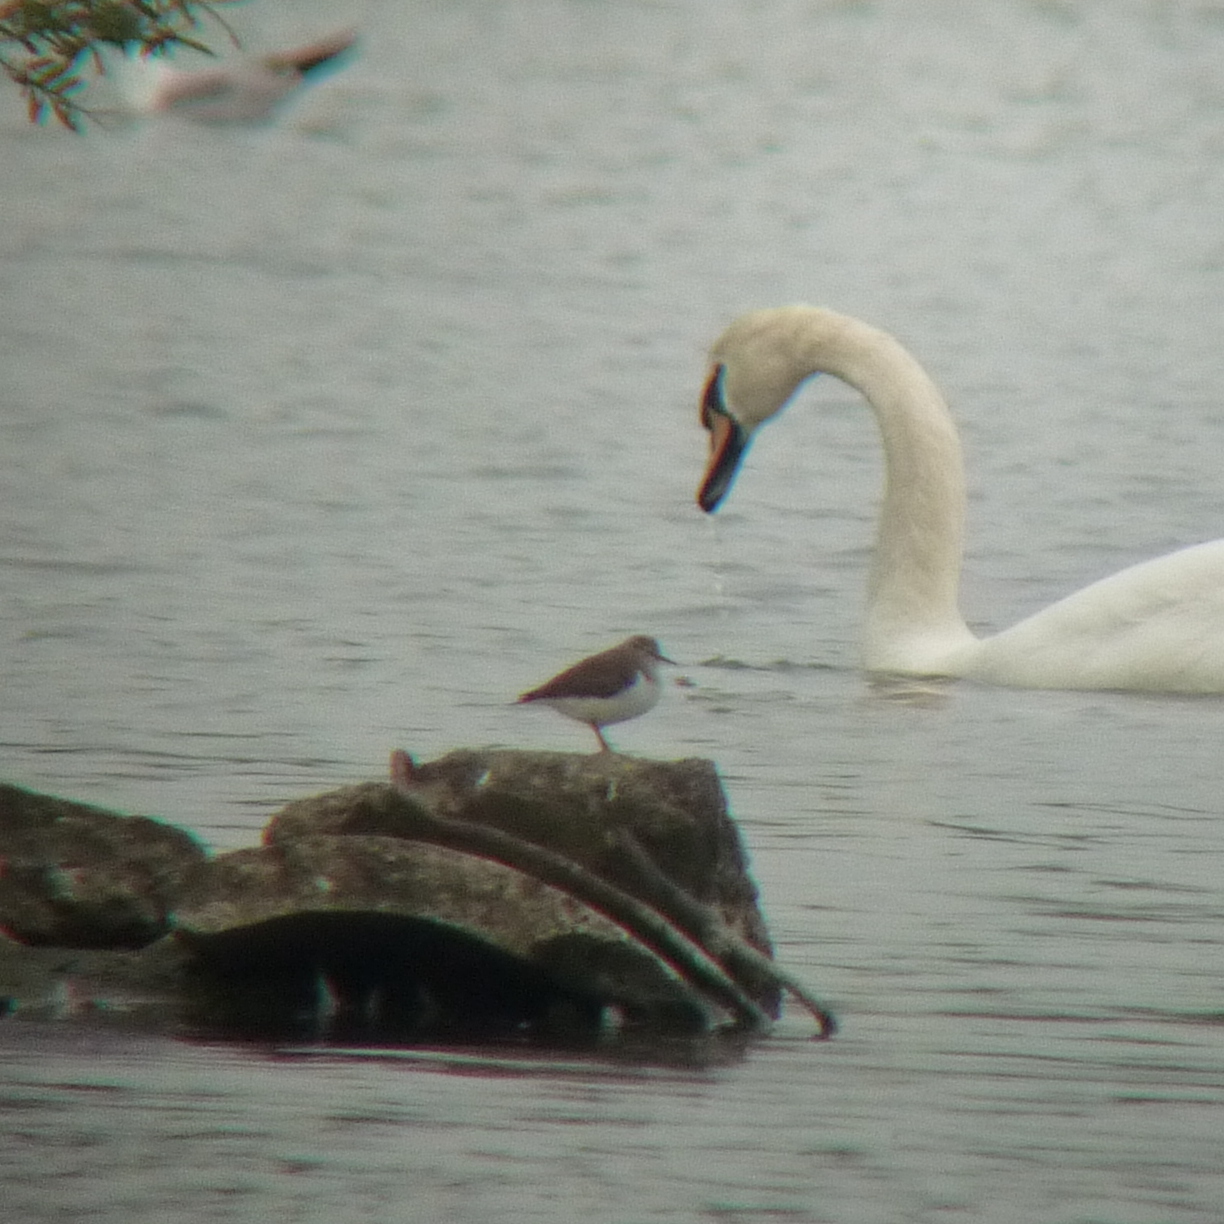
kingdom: Animalia
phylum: Chordata
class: Aves
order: Charadriiformes
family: Scolopacidae
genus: Actitis
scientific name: Actitis hypoleucos
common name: Common sandpiper
